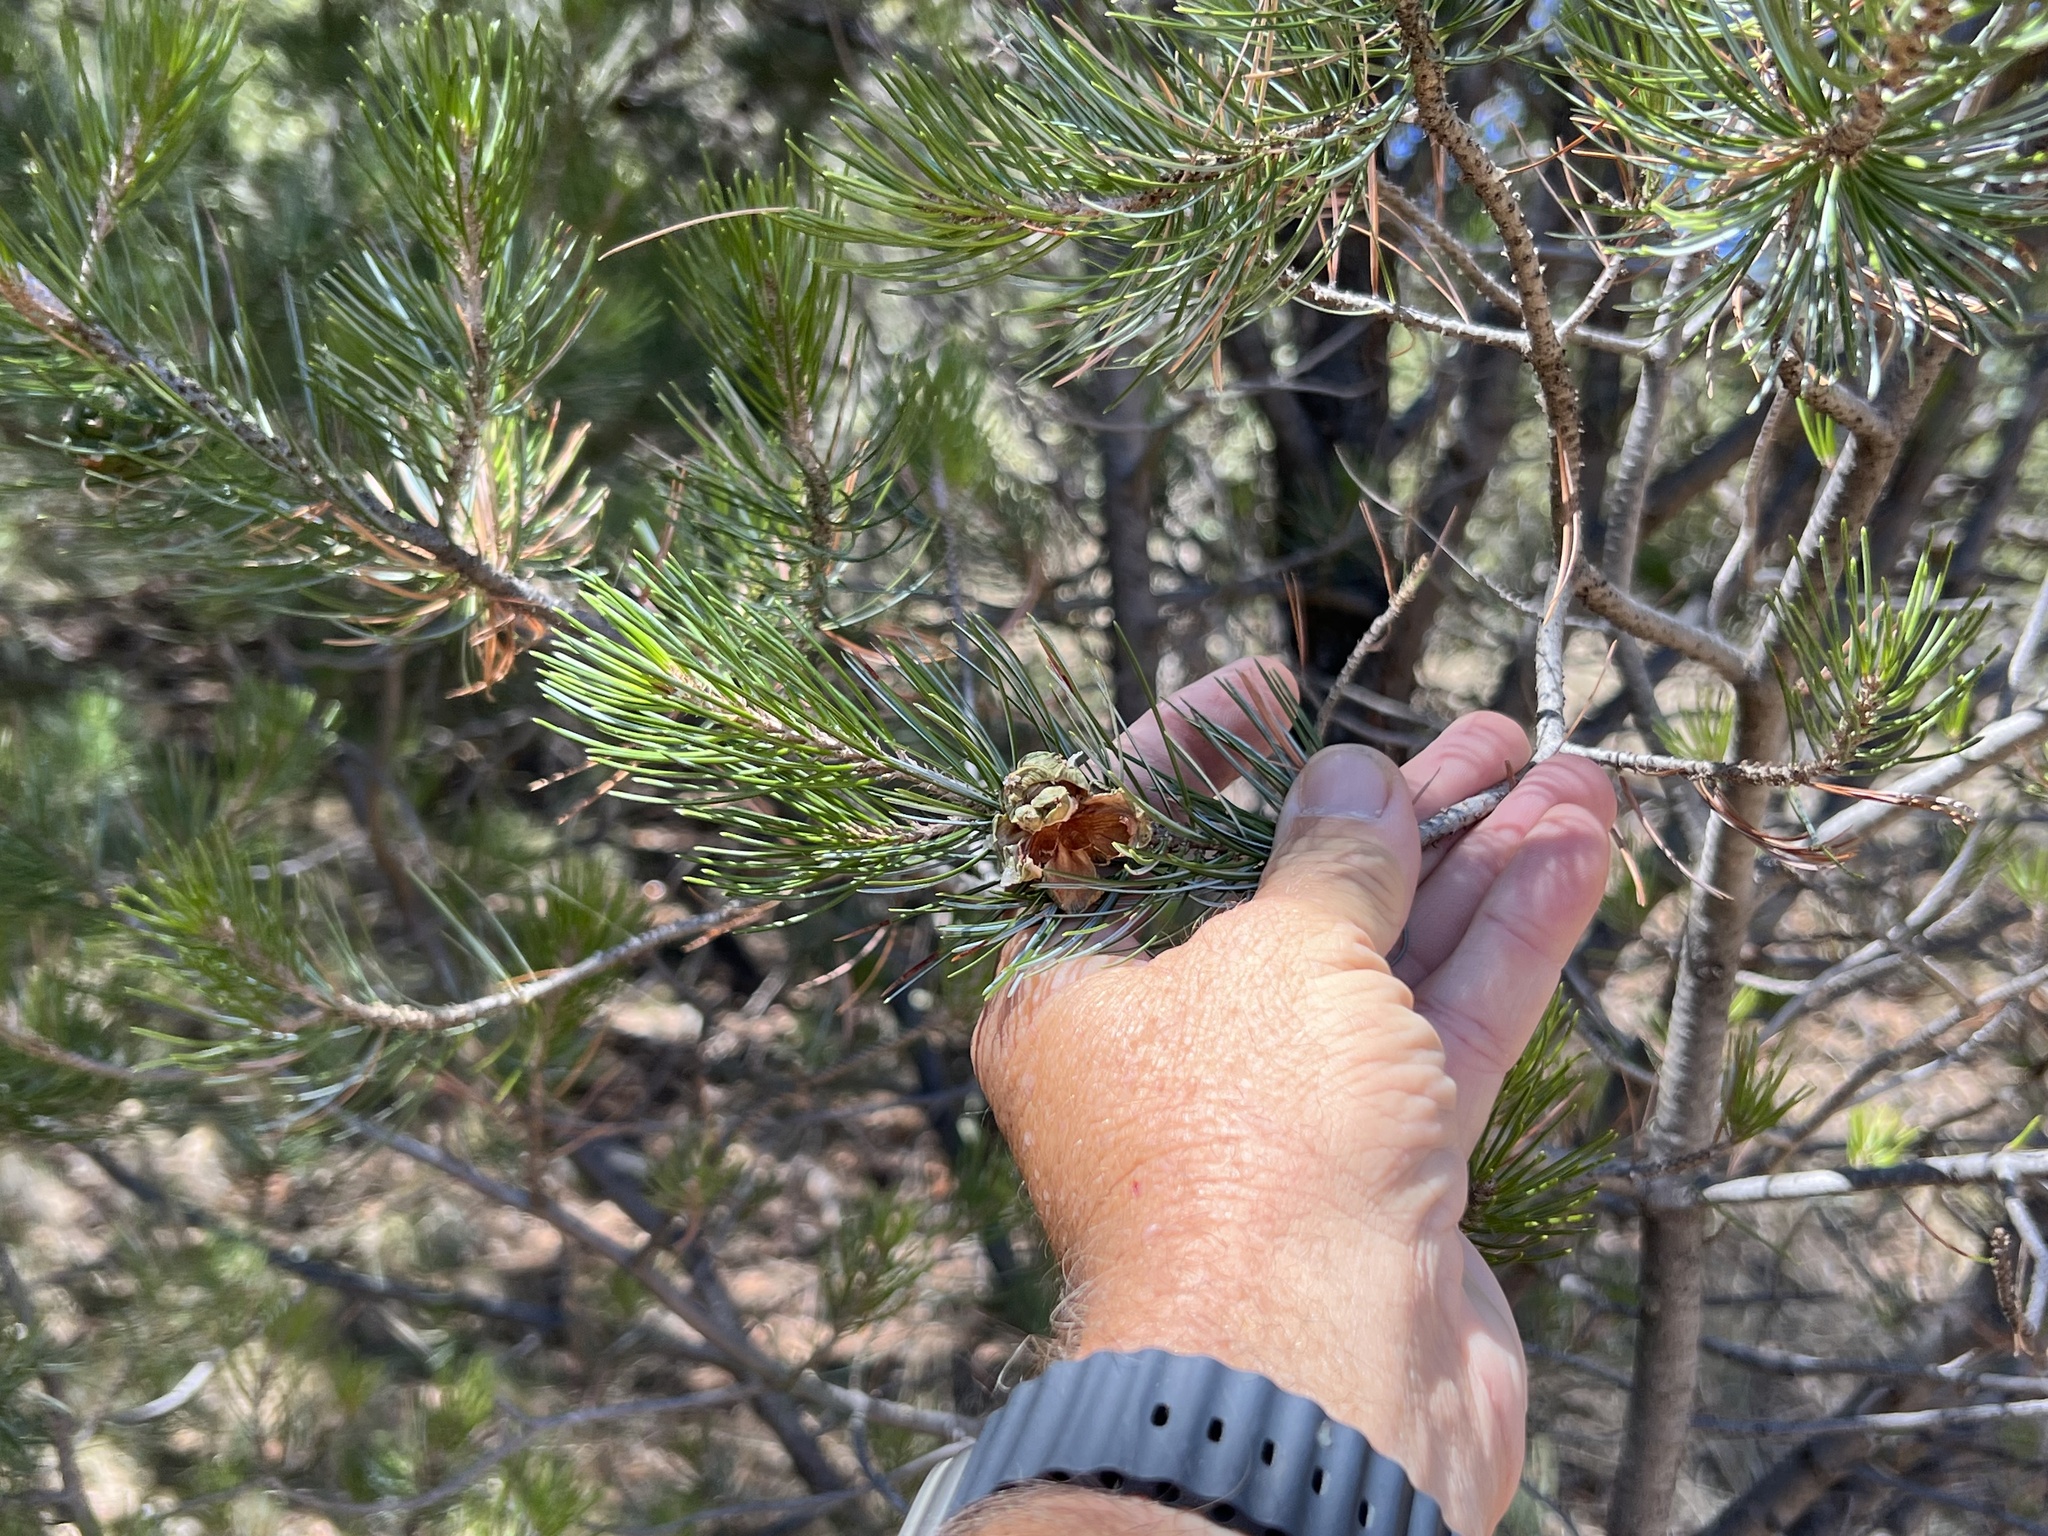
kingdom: Plantae
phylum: Tracheophyta
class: Pinopsida
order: Pinales
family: Pinaceae
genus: Pinus
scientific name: Pinus cembroides
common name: Mexican nut pine
